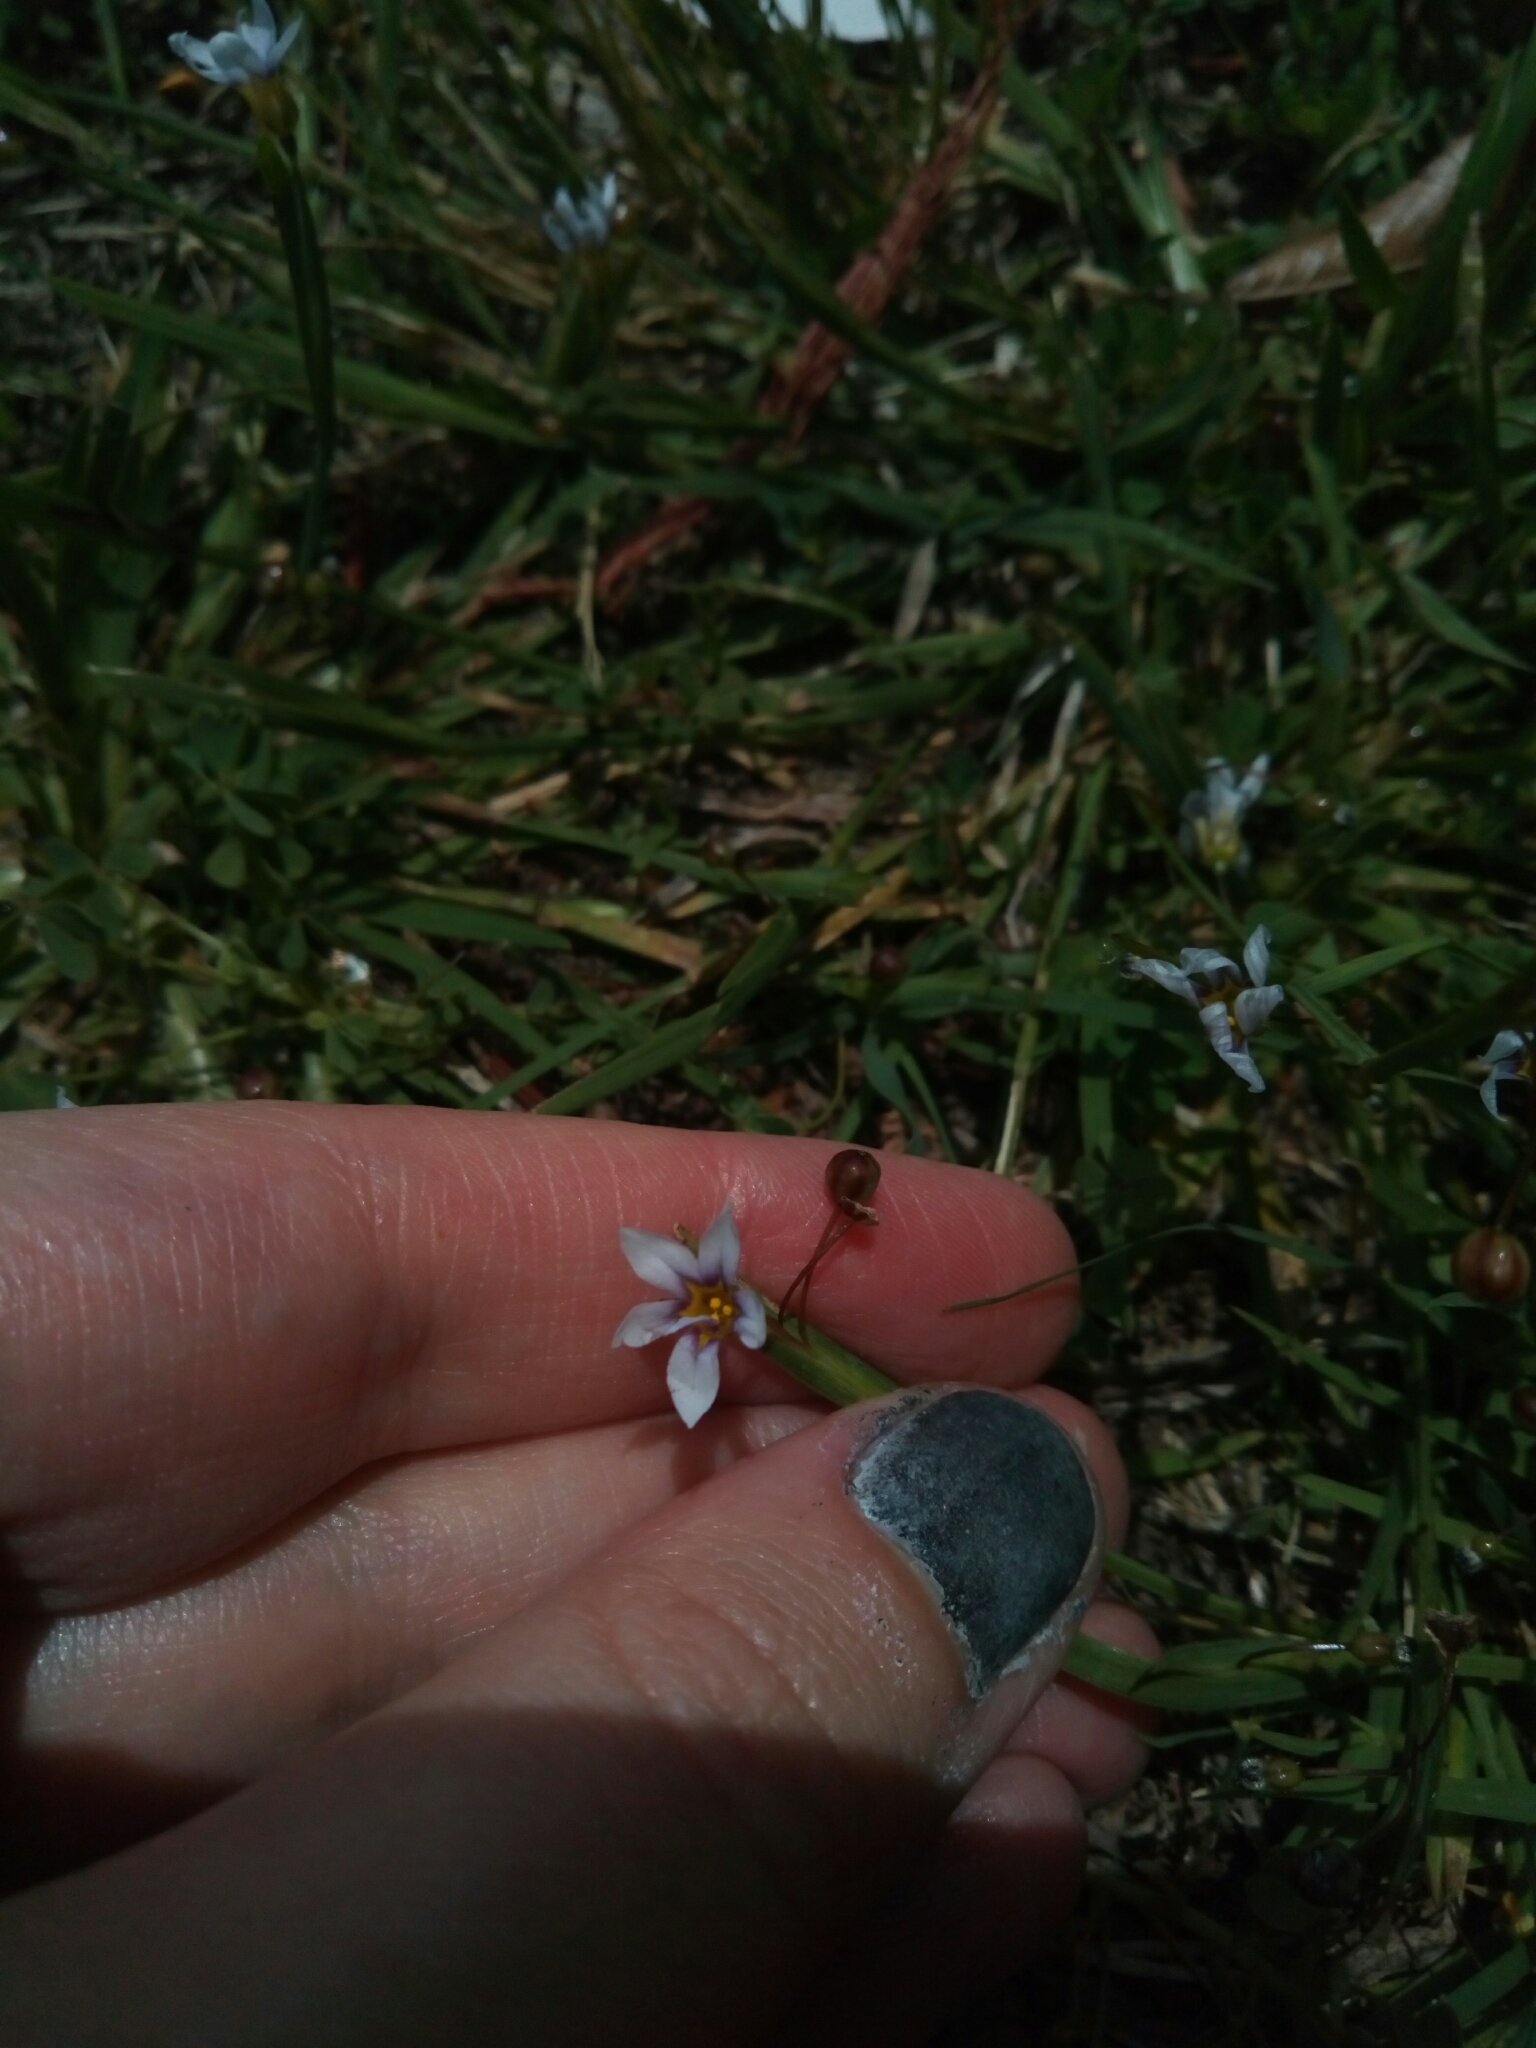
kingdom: Plantae
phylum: Tracheophyta
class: Liliopsida
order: Asparagales
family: Iridaceae
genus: Sisyrinchium
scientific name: Sisyrinchium micranthum
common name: Bermuda pigroot
